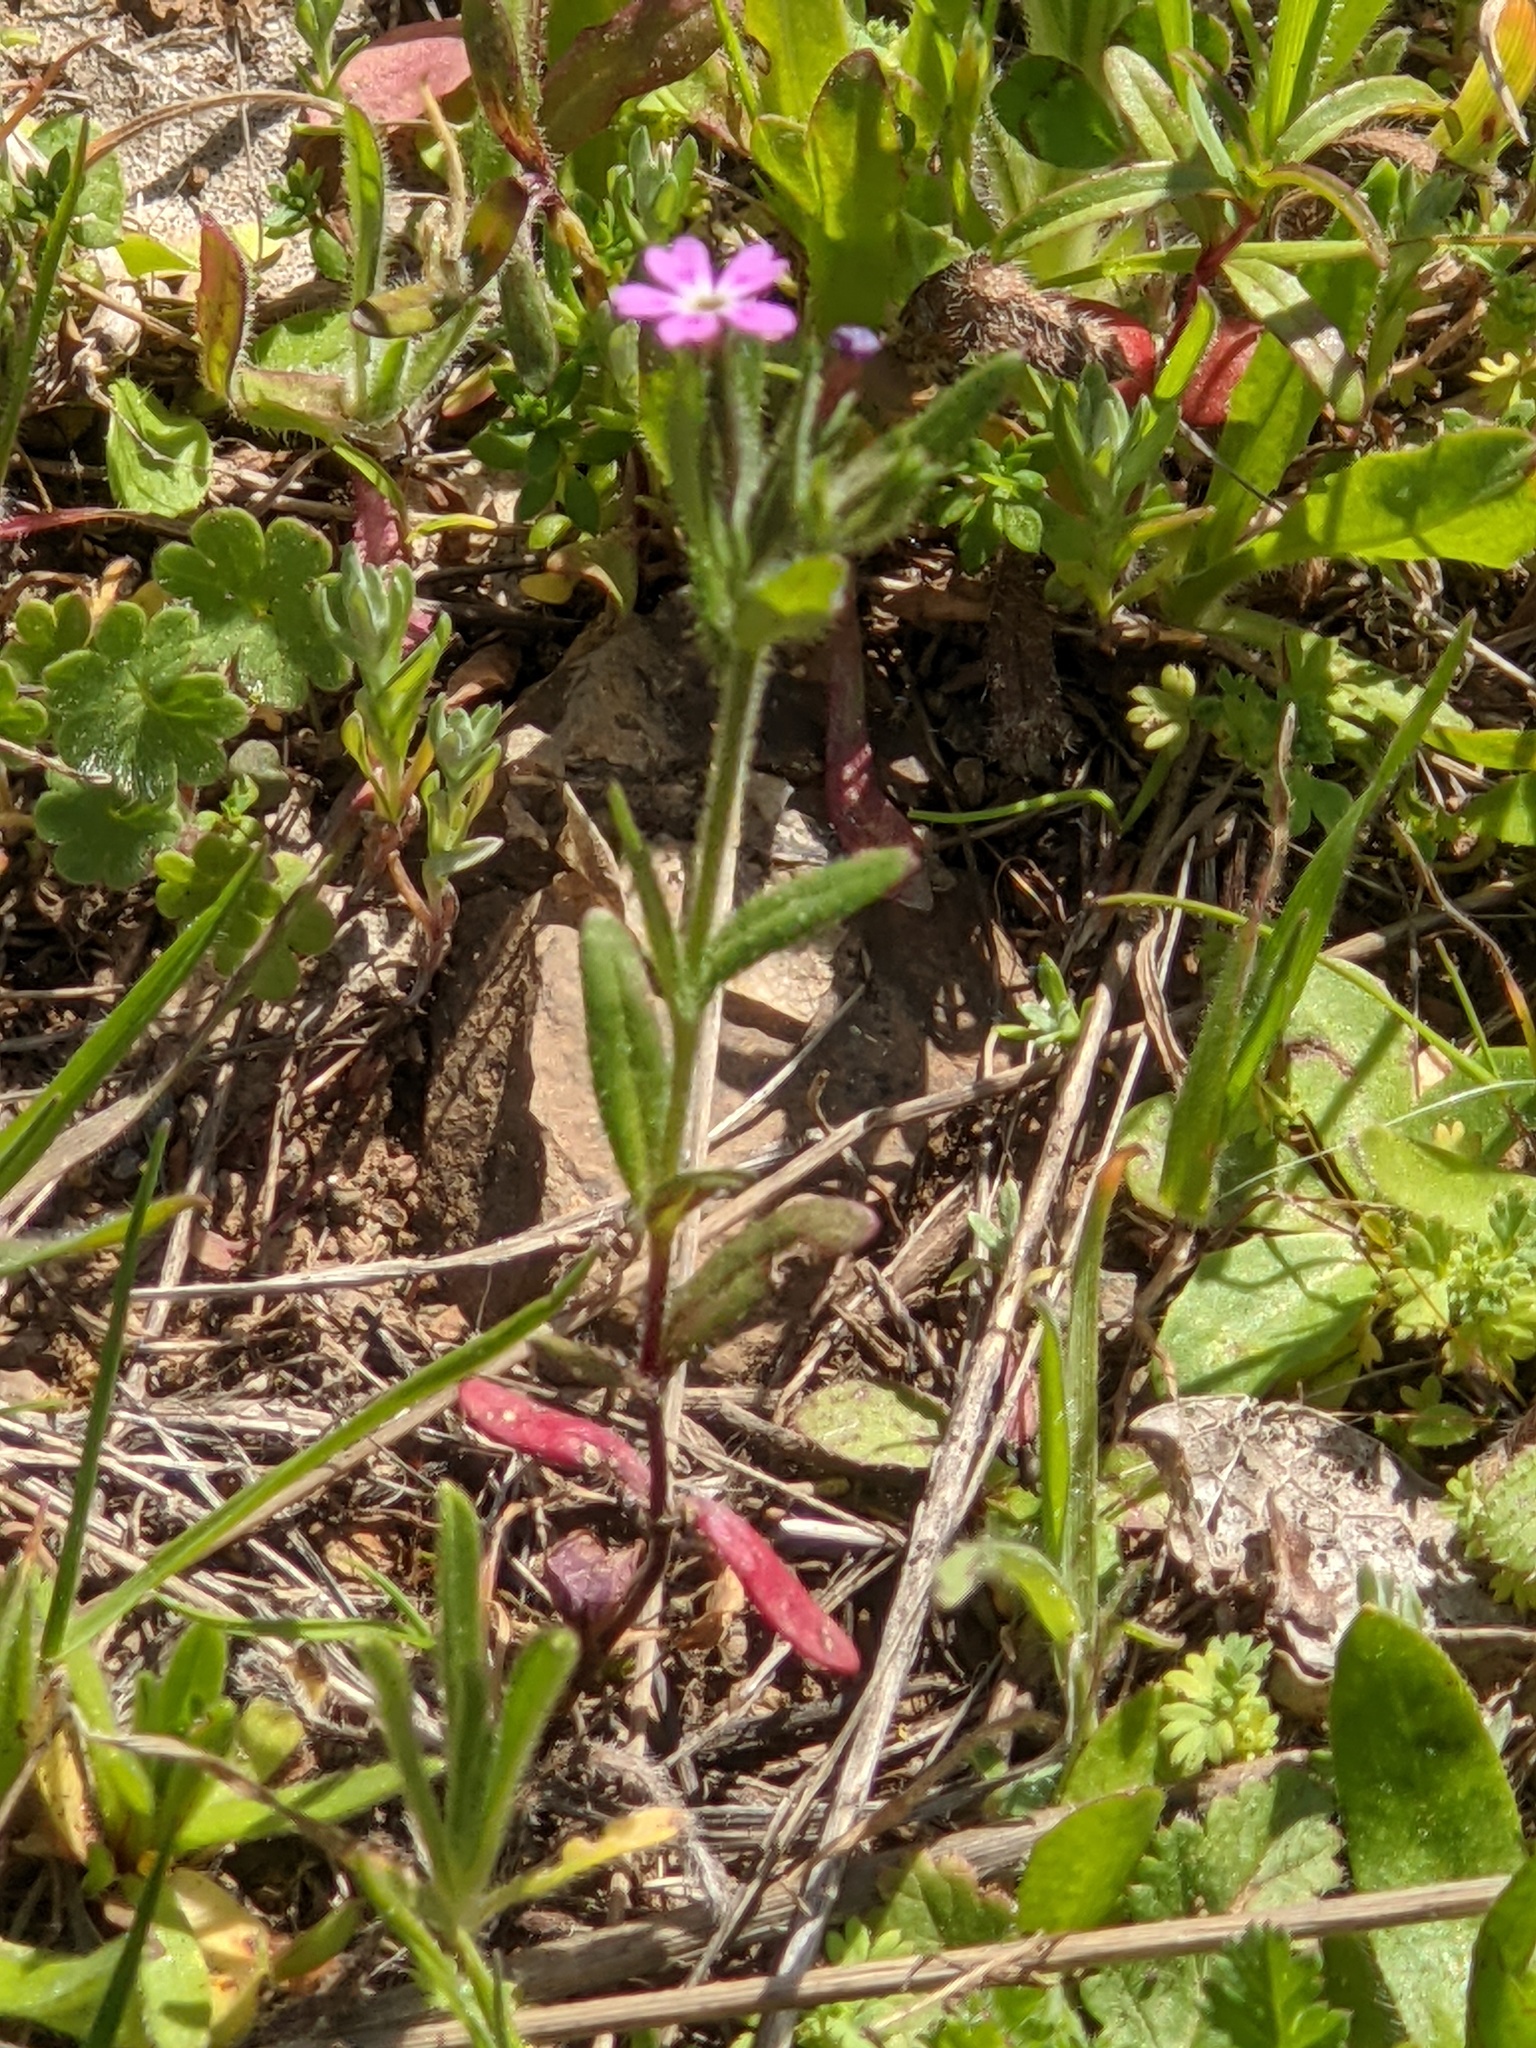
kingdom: Plantae
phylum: Tracheophyta
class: Magnoliopsida
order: Ericales
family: Polemoniaceae
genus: Phlox
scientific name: Phlox gracilis
